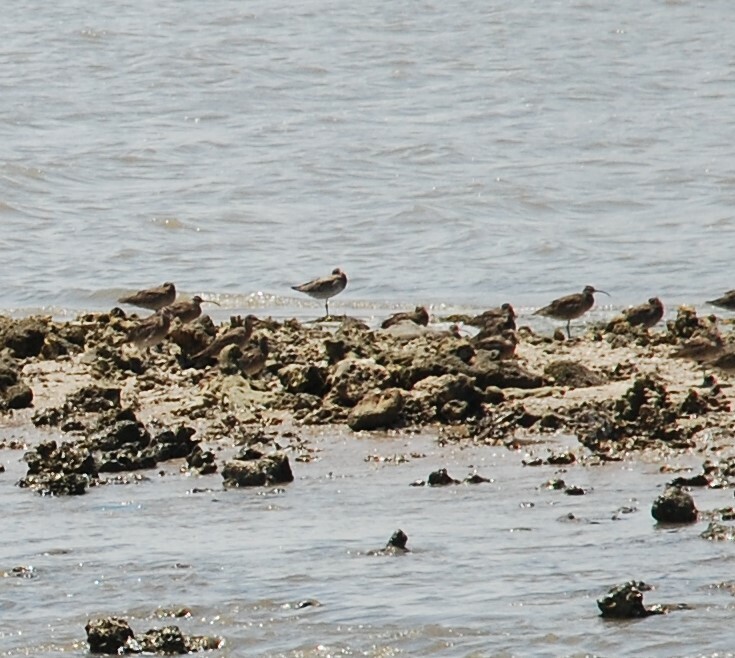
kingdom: Animalia
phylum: Chordata
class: Aves
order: Charadriiformes
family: Scolopacidae
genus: Numenius
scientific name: Numenius phaeopus
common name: Whimbrel
